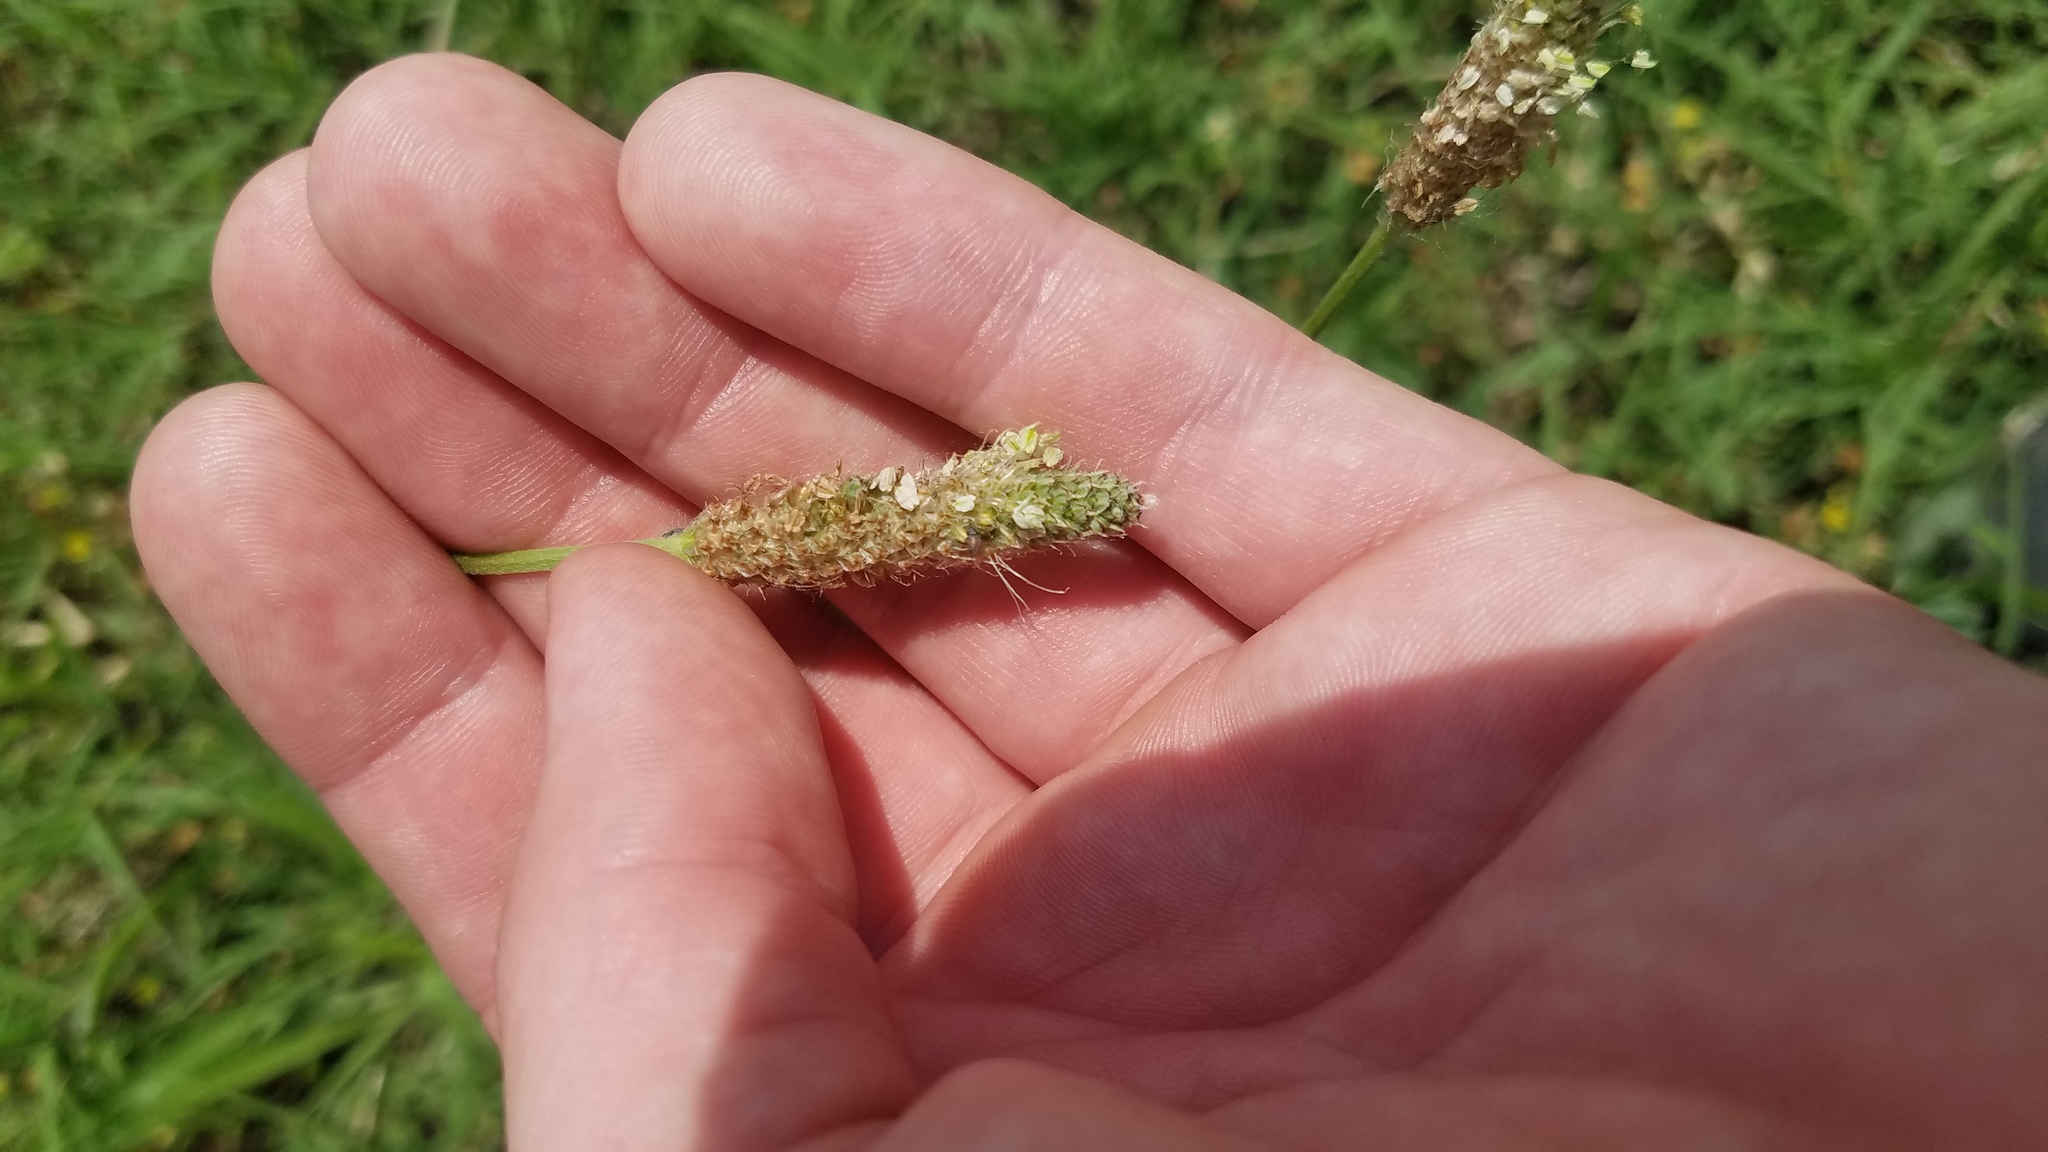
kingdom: Plantae
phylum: Tracheophyta
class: Magnoliopsida
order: Lamiales
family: Plantaginaceae
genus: Plantago
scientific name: Plantago lanceolata
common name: Ribwort plantain
